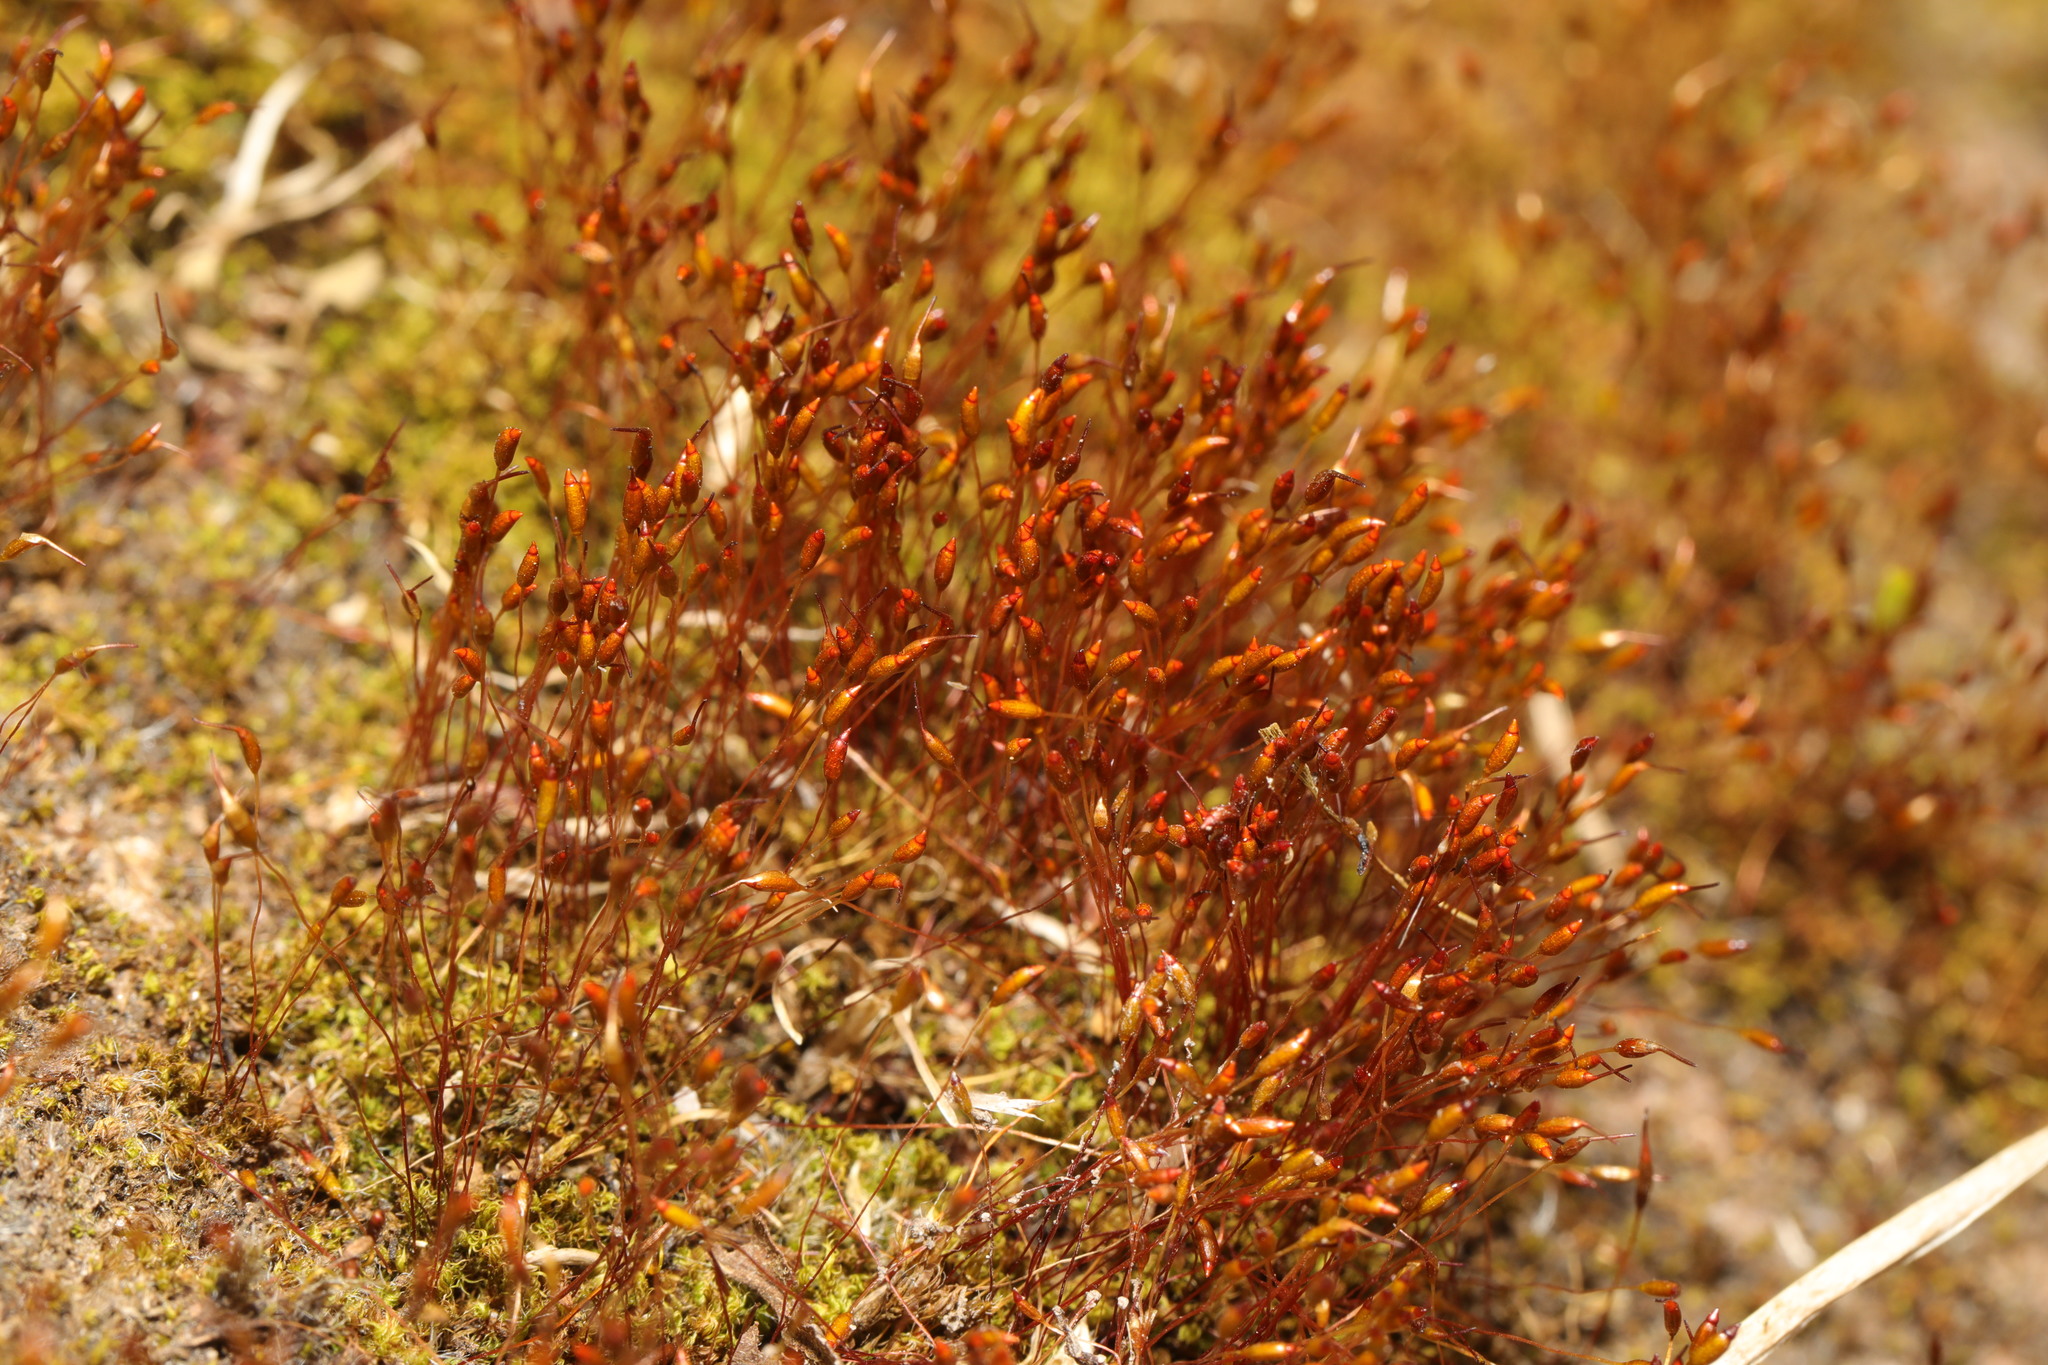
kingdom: Plantae
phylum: Bryophyta
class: Bryopsida
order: Dicranales
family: Ditrichaceae
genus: Ceratodon
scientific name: Ceratodon purpureus
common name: Redshank
